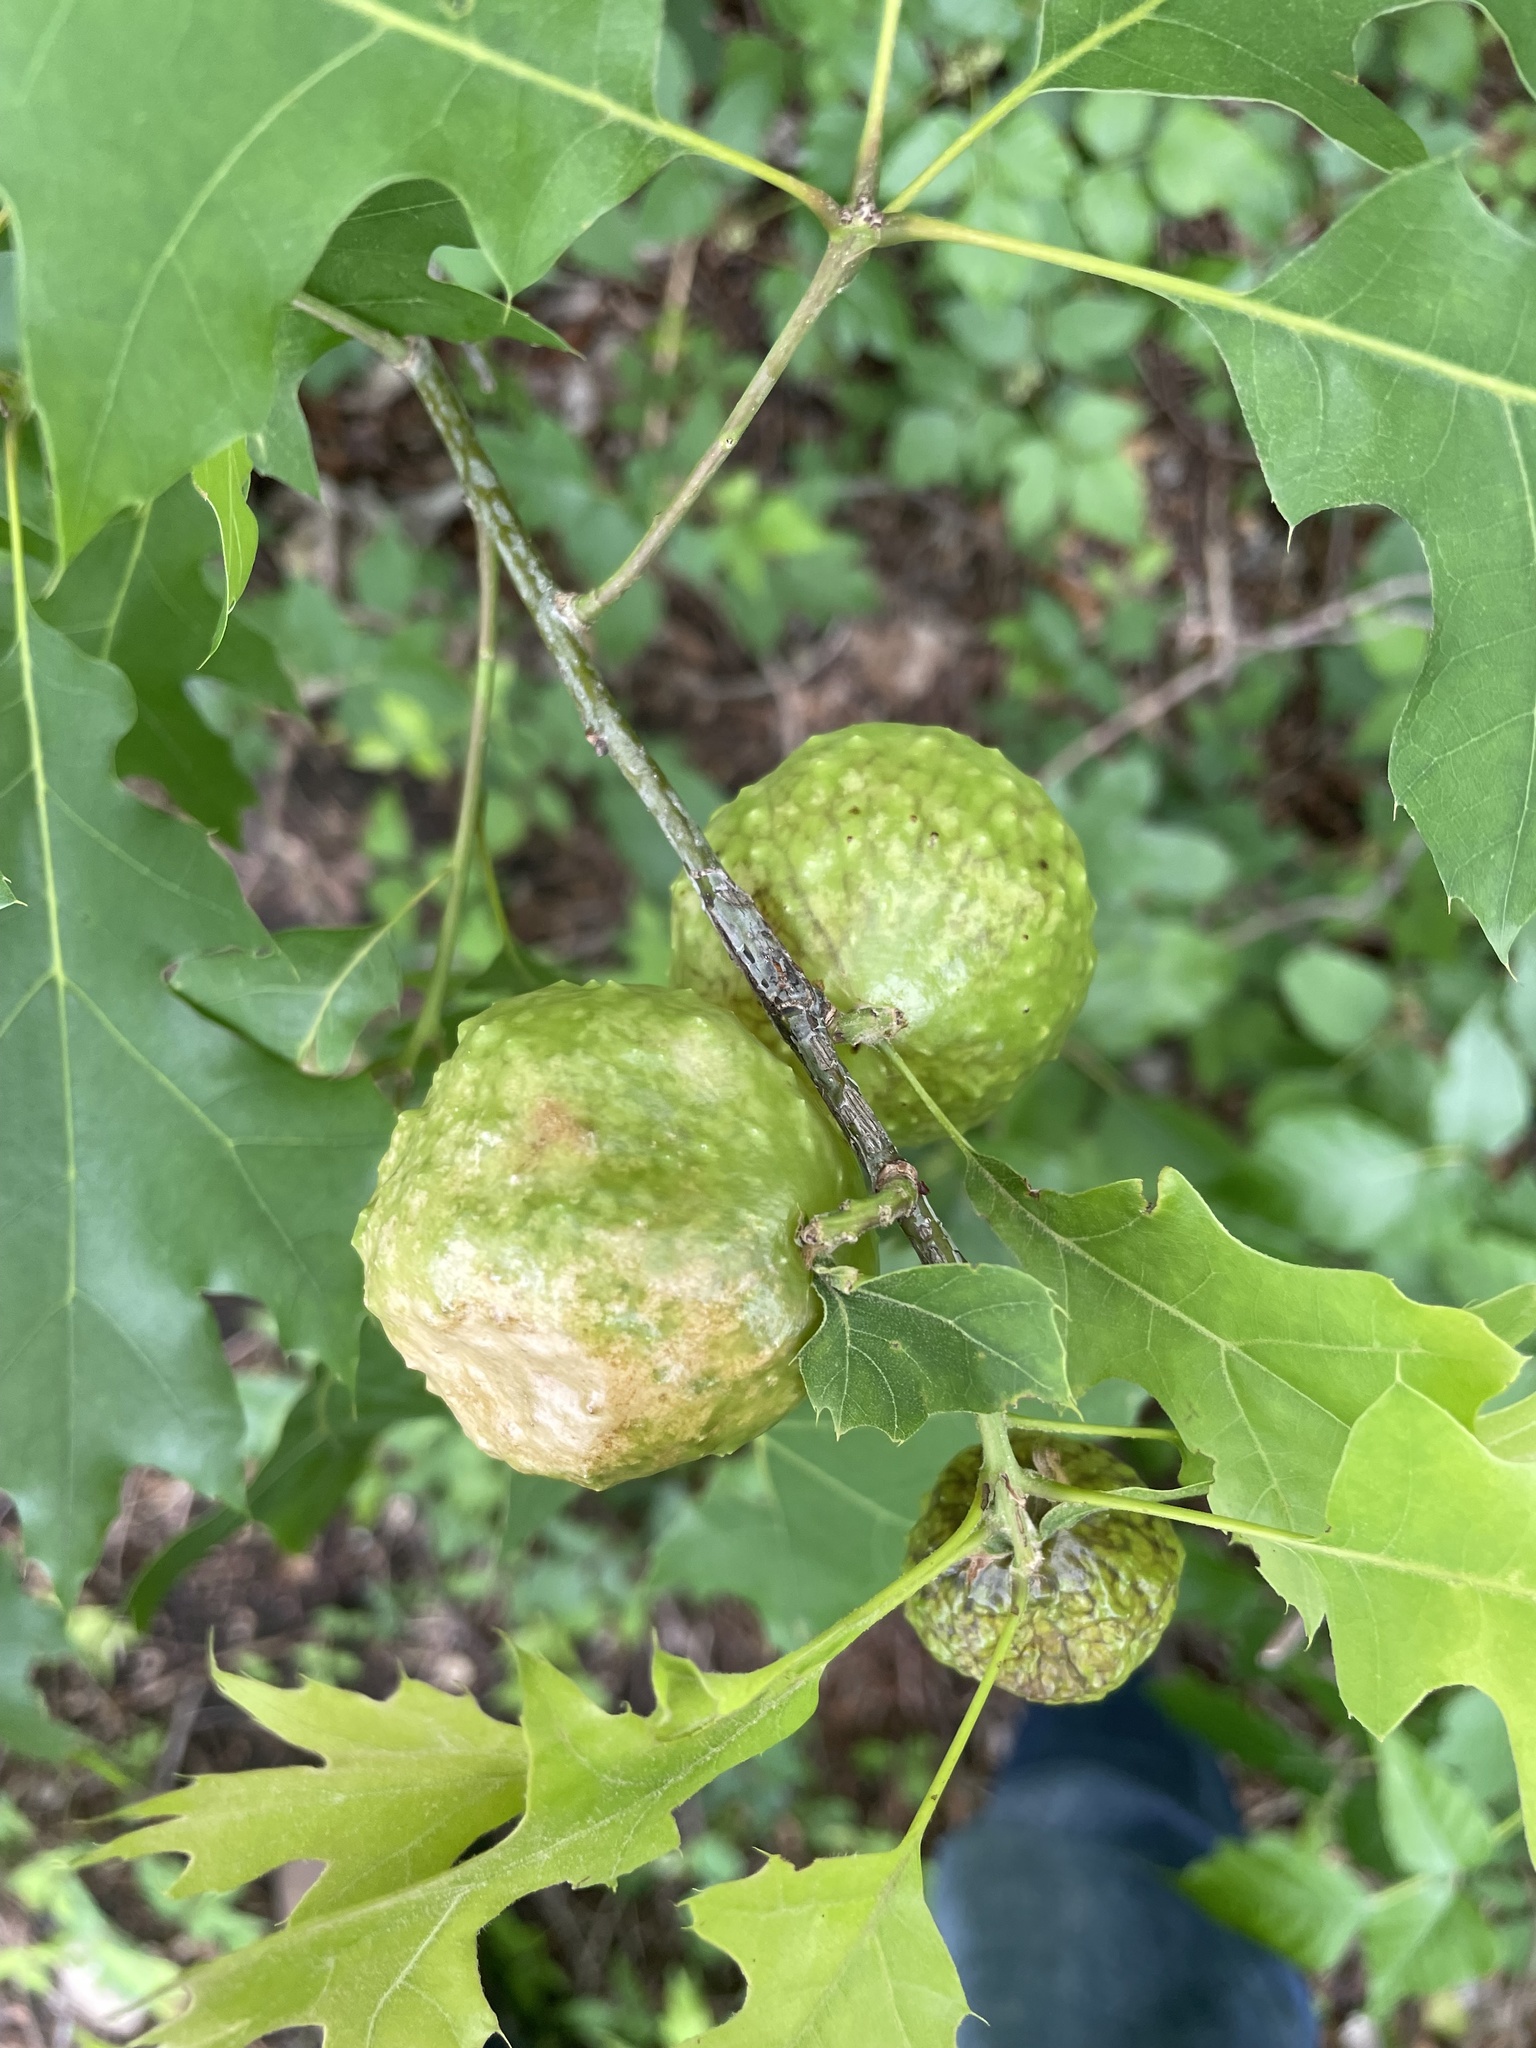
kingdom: Animalia
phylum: Arthropoda
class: Insecta
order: Hymenoptera
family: Cynipidae
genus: Amphibolips
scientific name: Amphibolips
